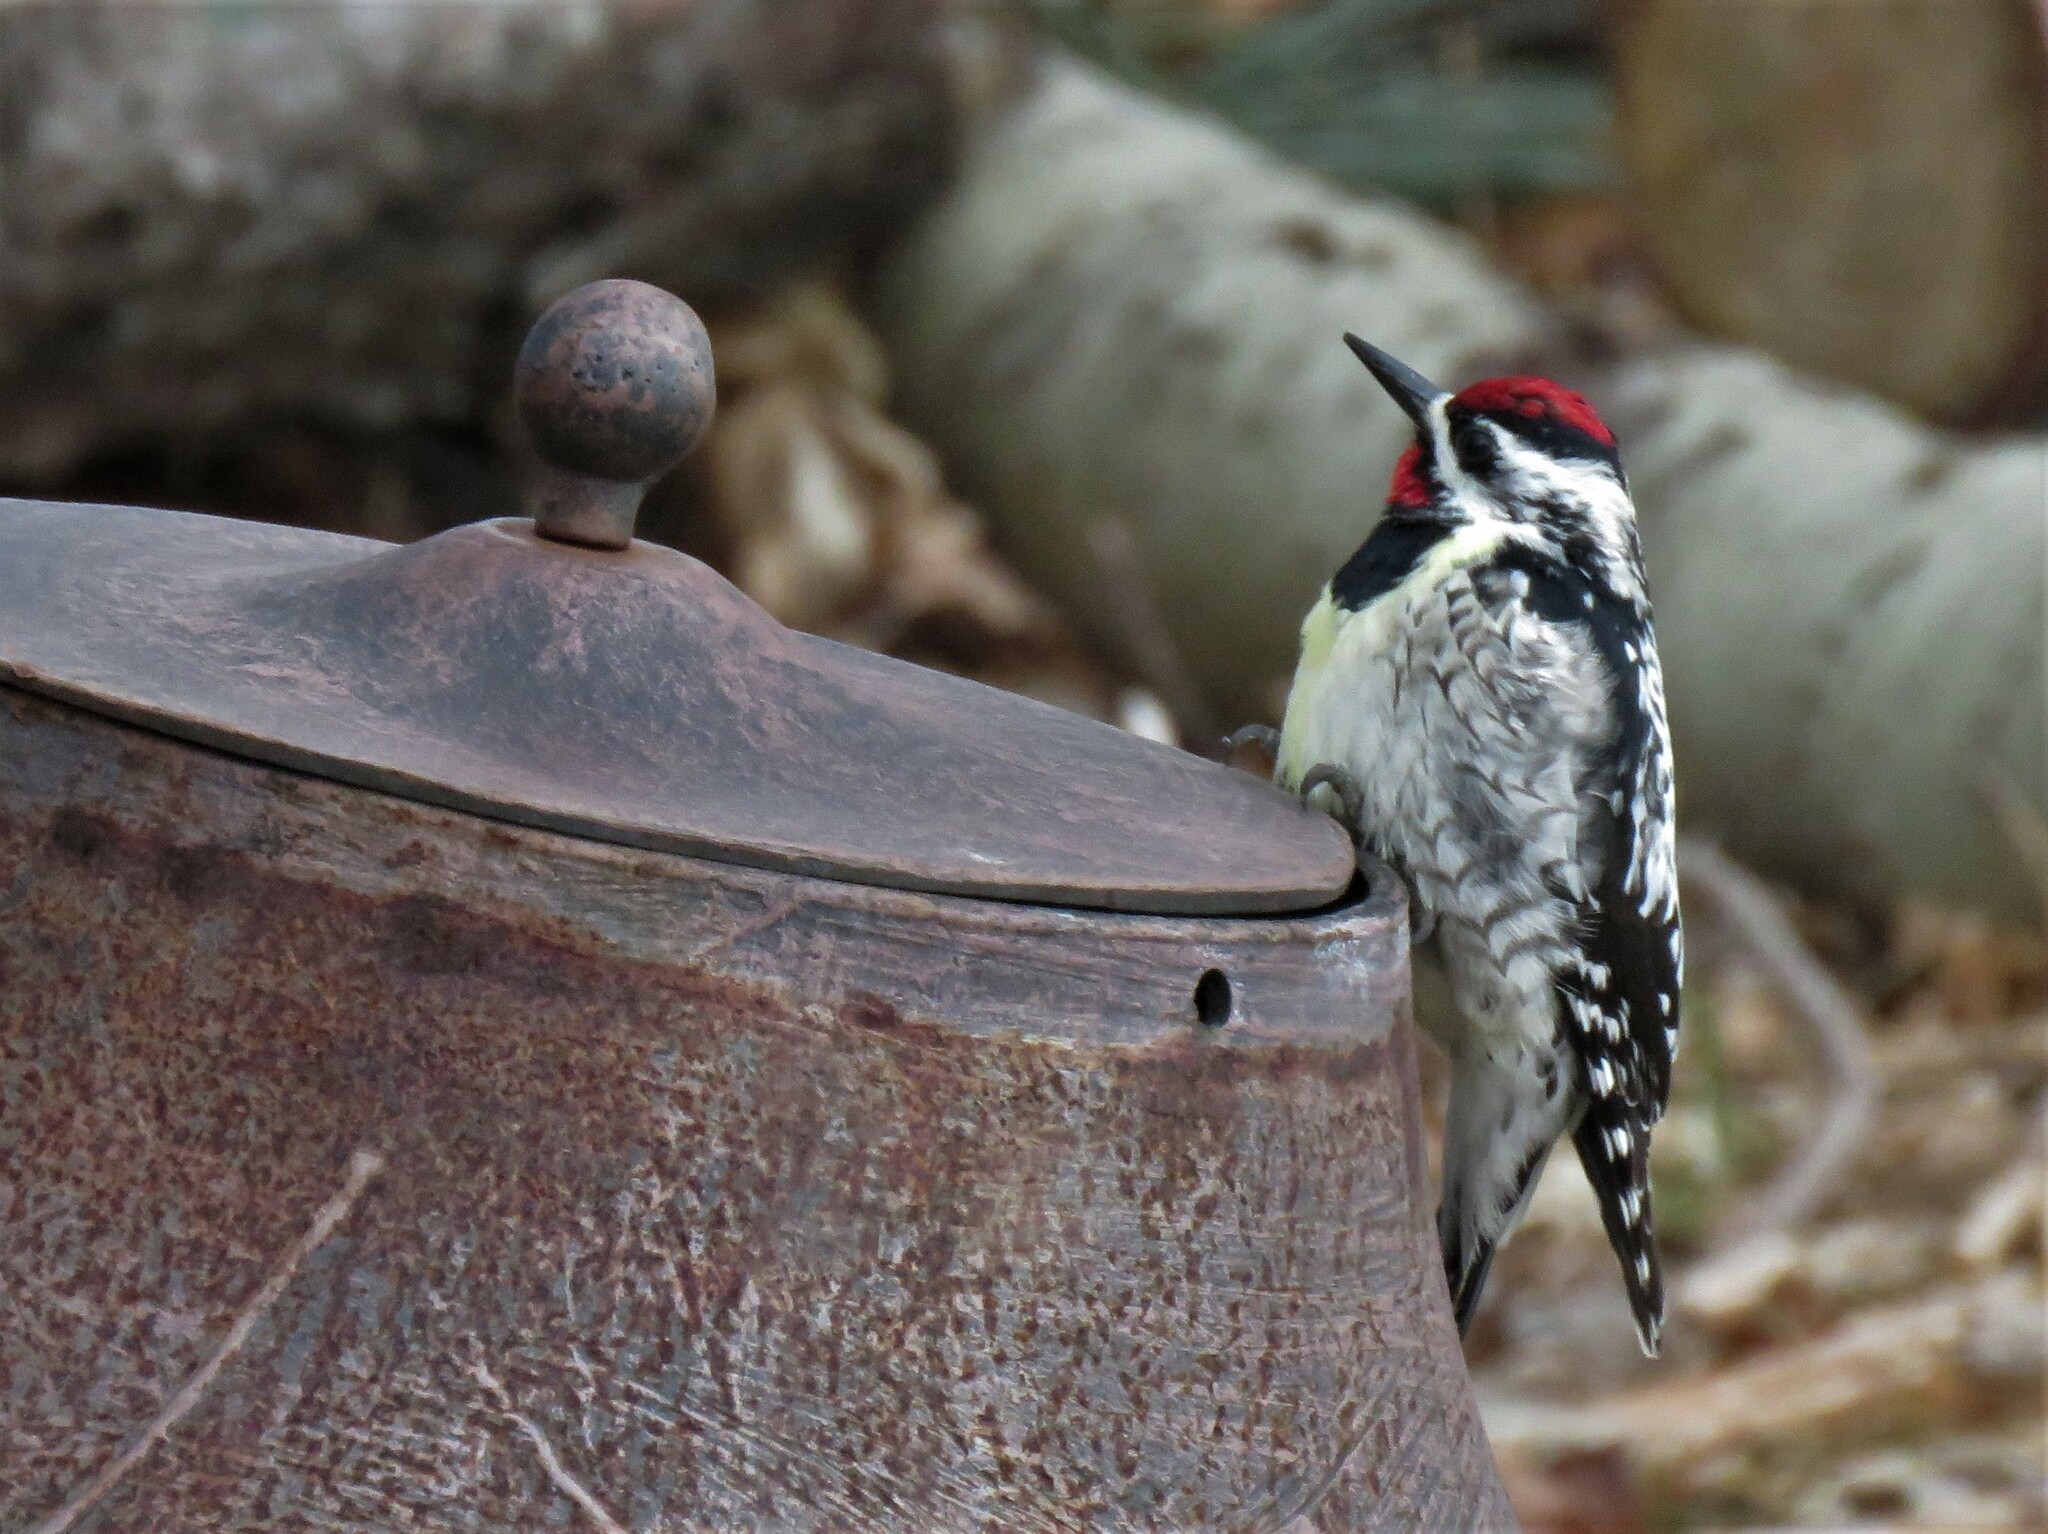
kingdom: Animalia
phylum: Chordata
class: Aves
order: Piciformes
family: Picidae
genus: Sphyrapicus
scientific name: Sphyrapicus varius
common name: Yellow-bellied sapsucker
